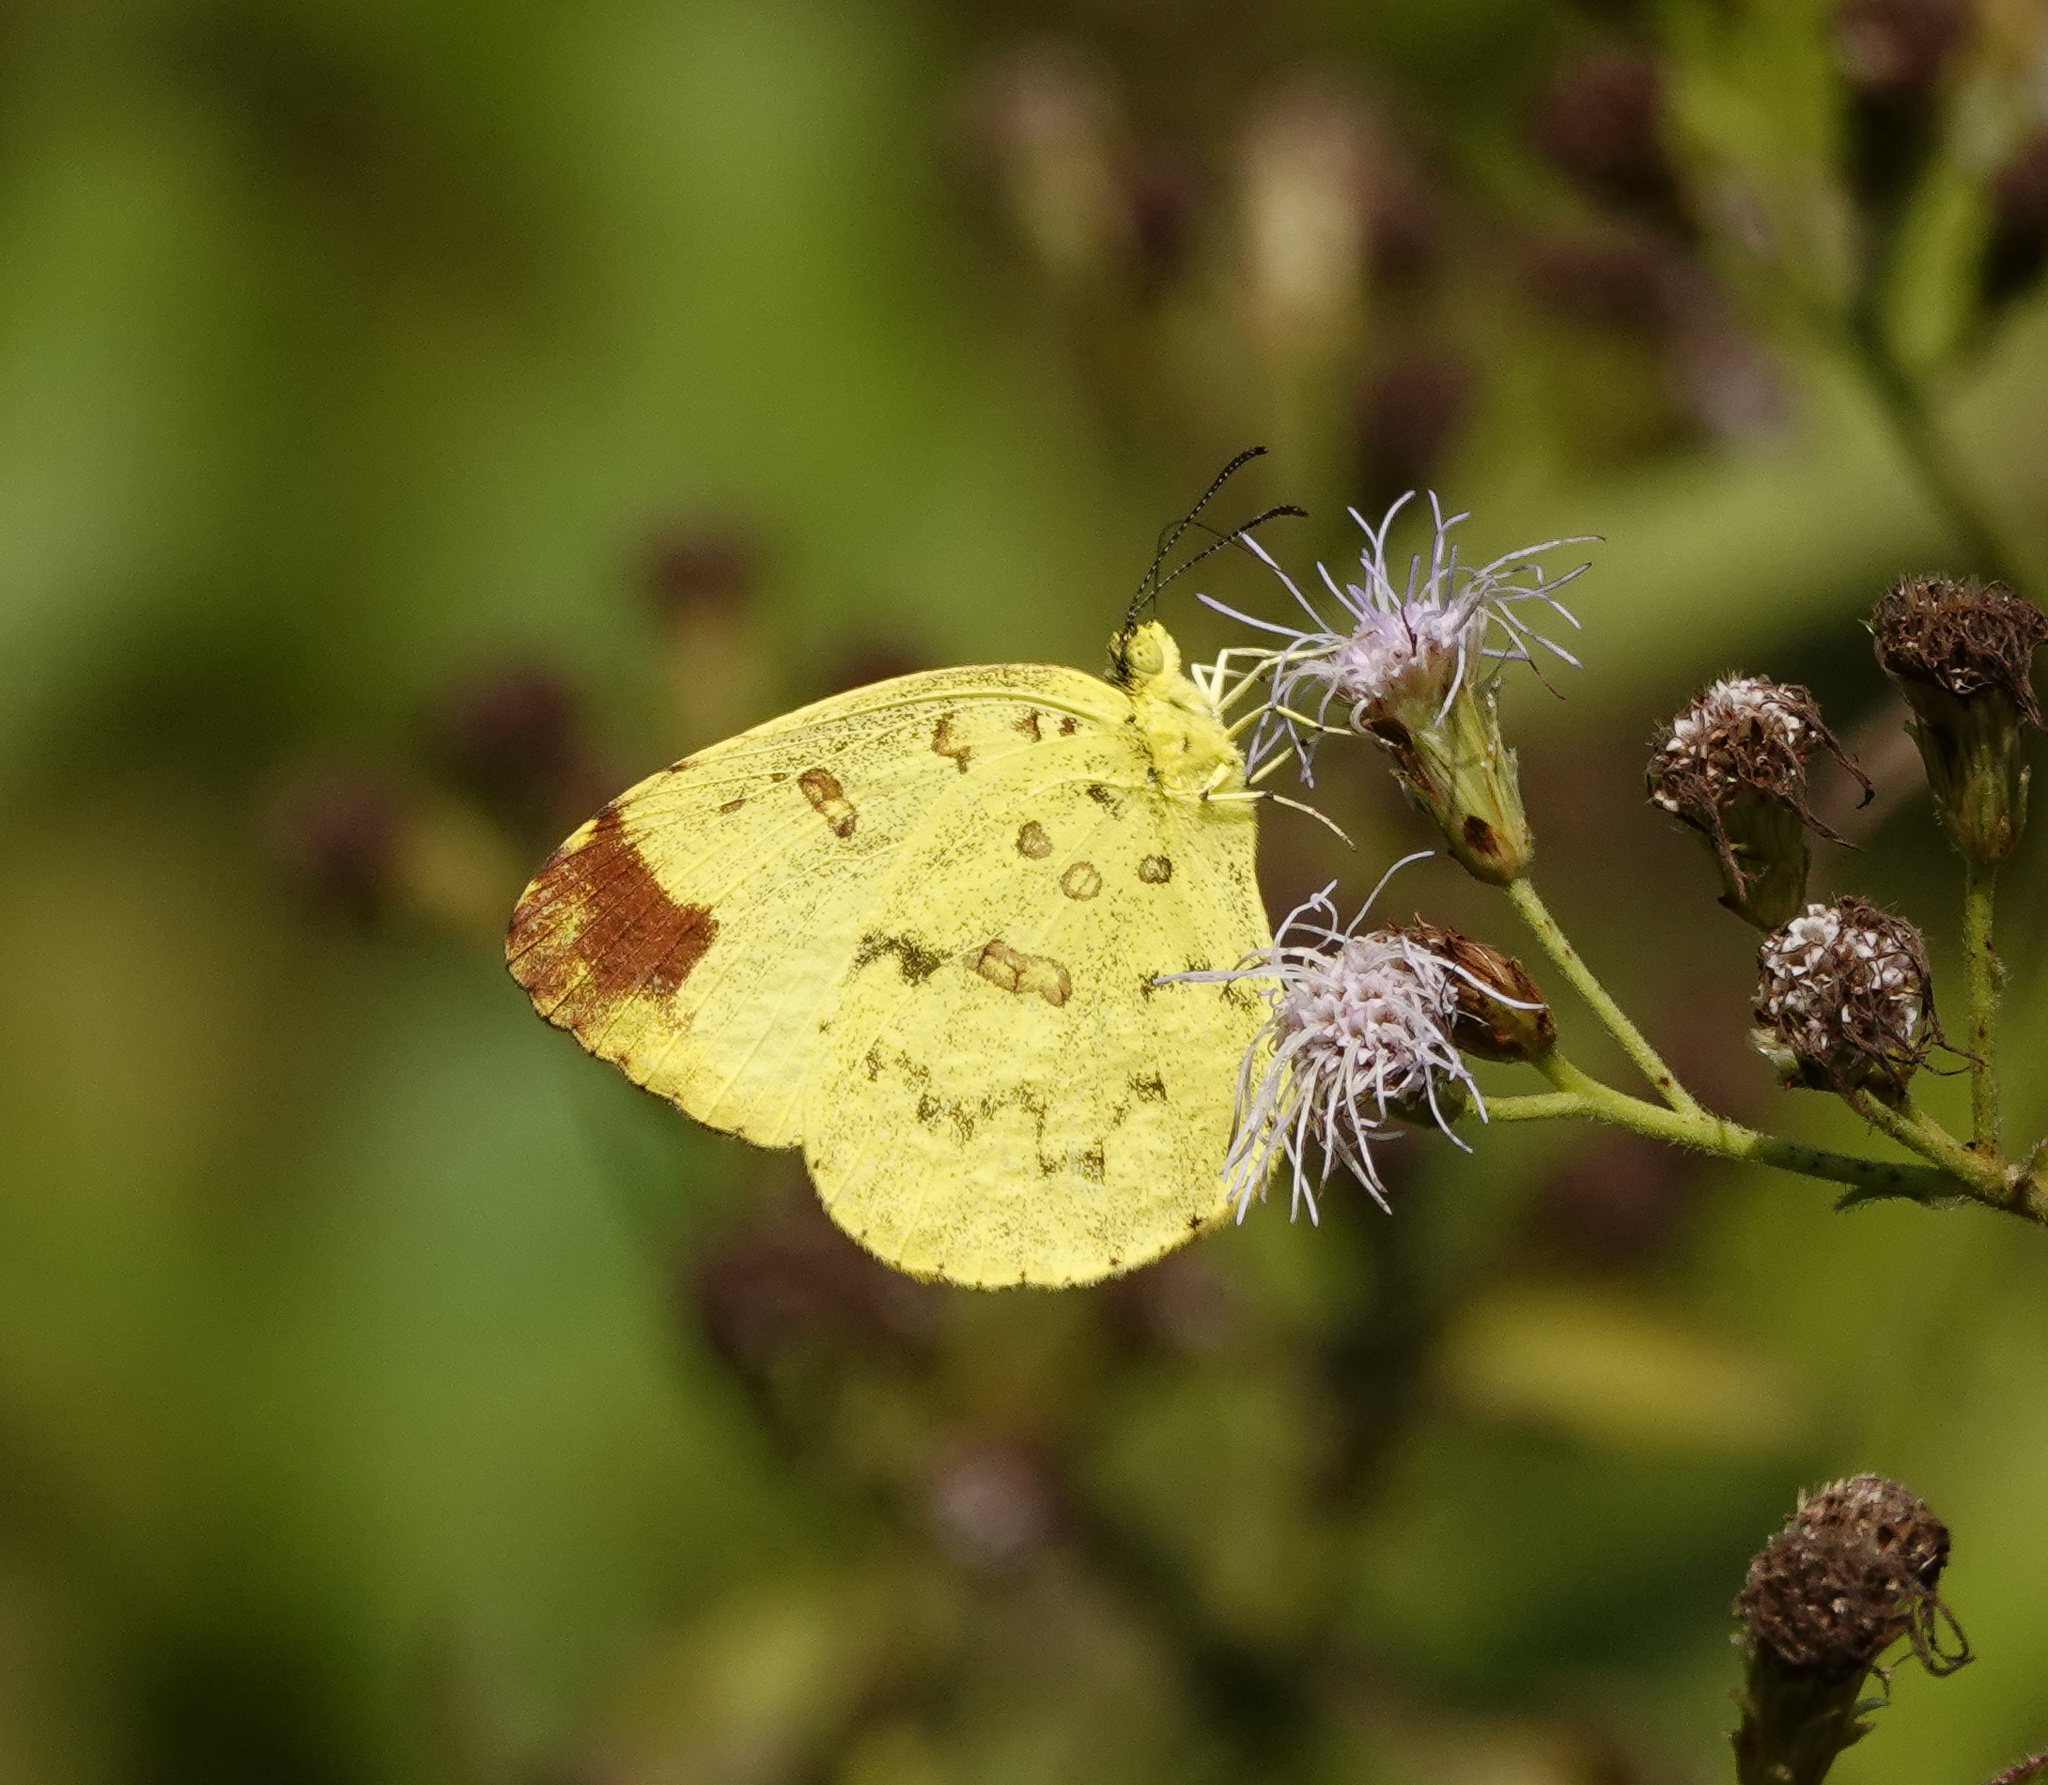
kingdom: Animalia
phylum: Arthropoda
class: Insecta
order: Lepidoptera
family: Pieridae
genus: Eurema
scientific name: Eurema blanda
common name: Three-spot grass yellow
